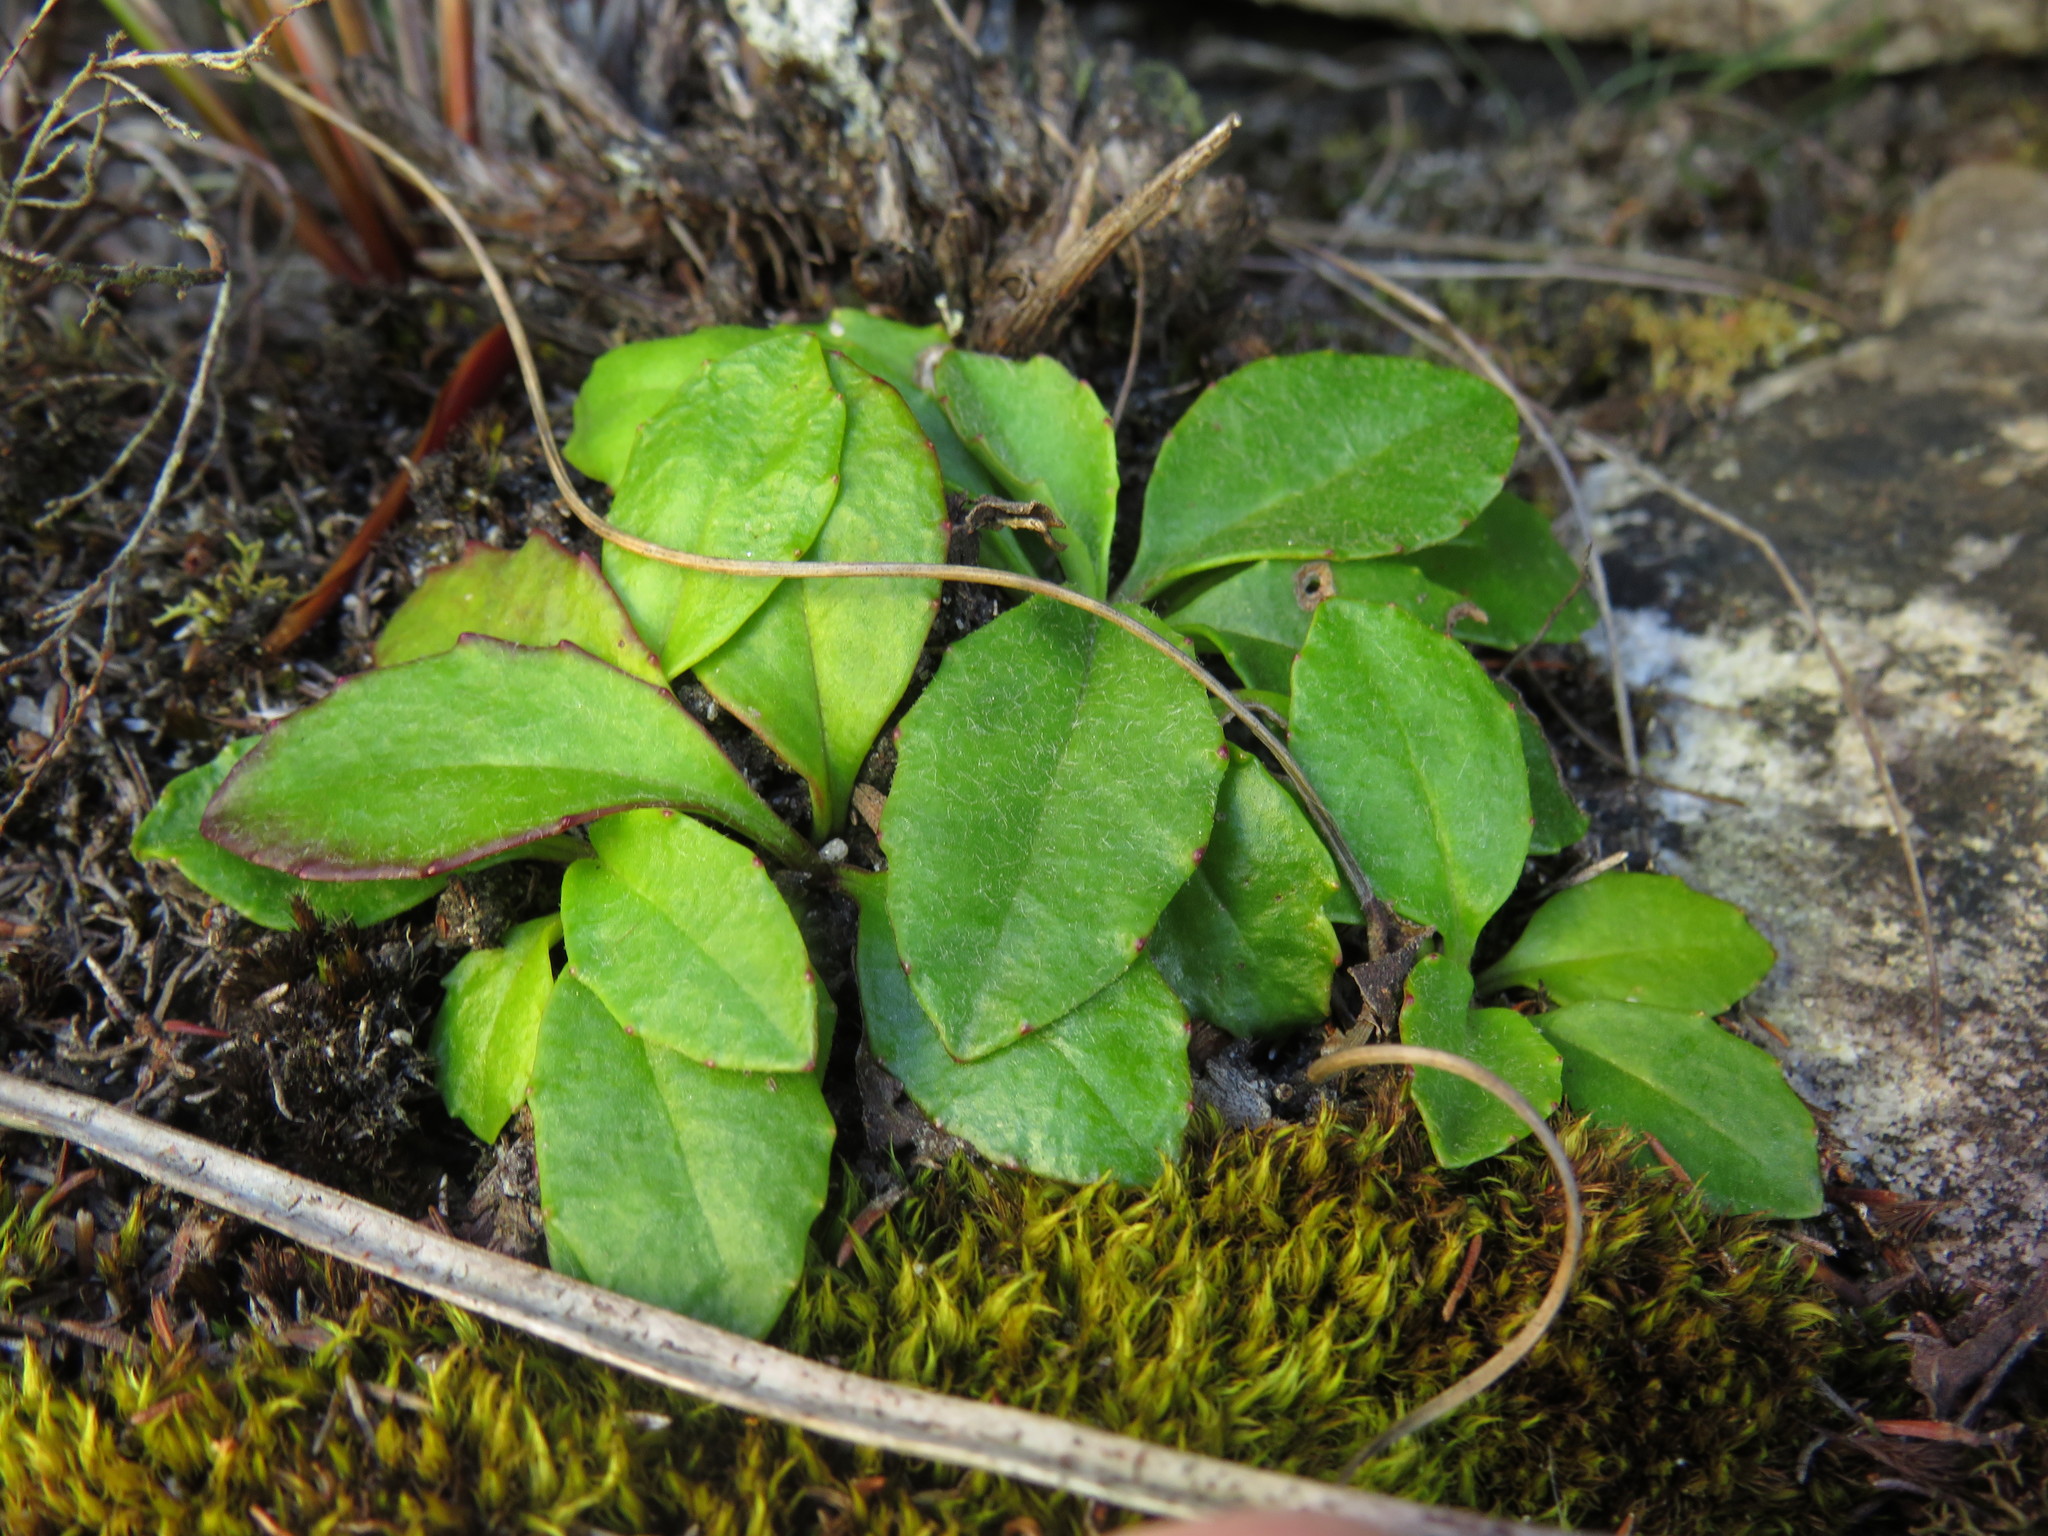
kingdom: Plantae
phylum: Tracheophyta
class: Magnoliopsida
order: Asterales
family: Asteraceae
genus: Zyrphelis
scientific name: Zyrphelis crenata
